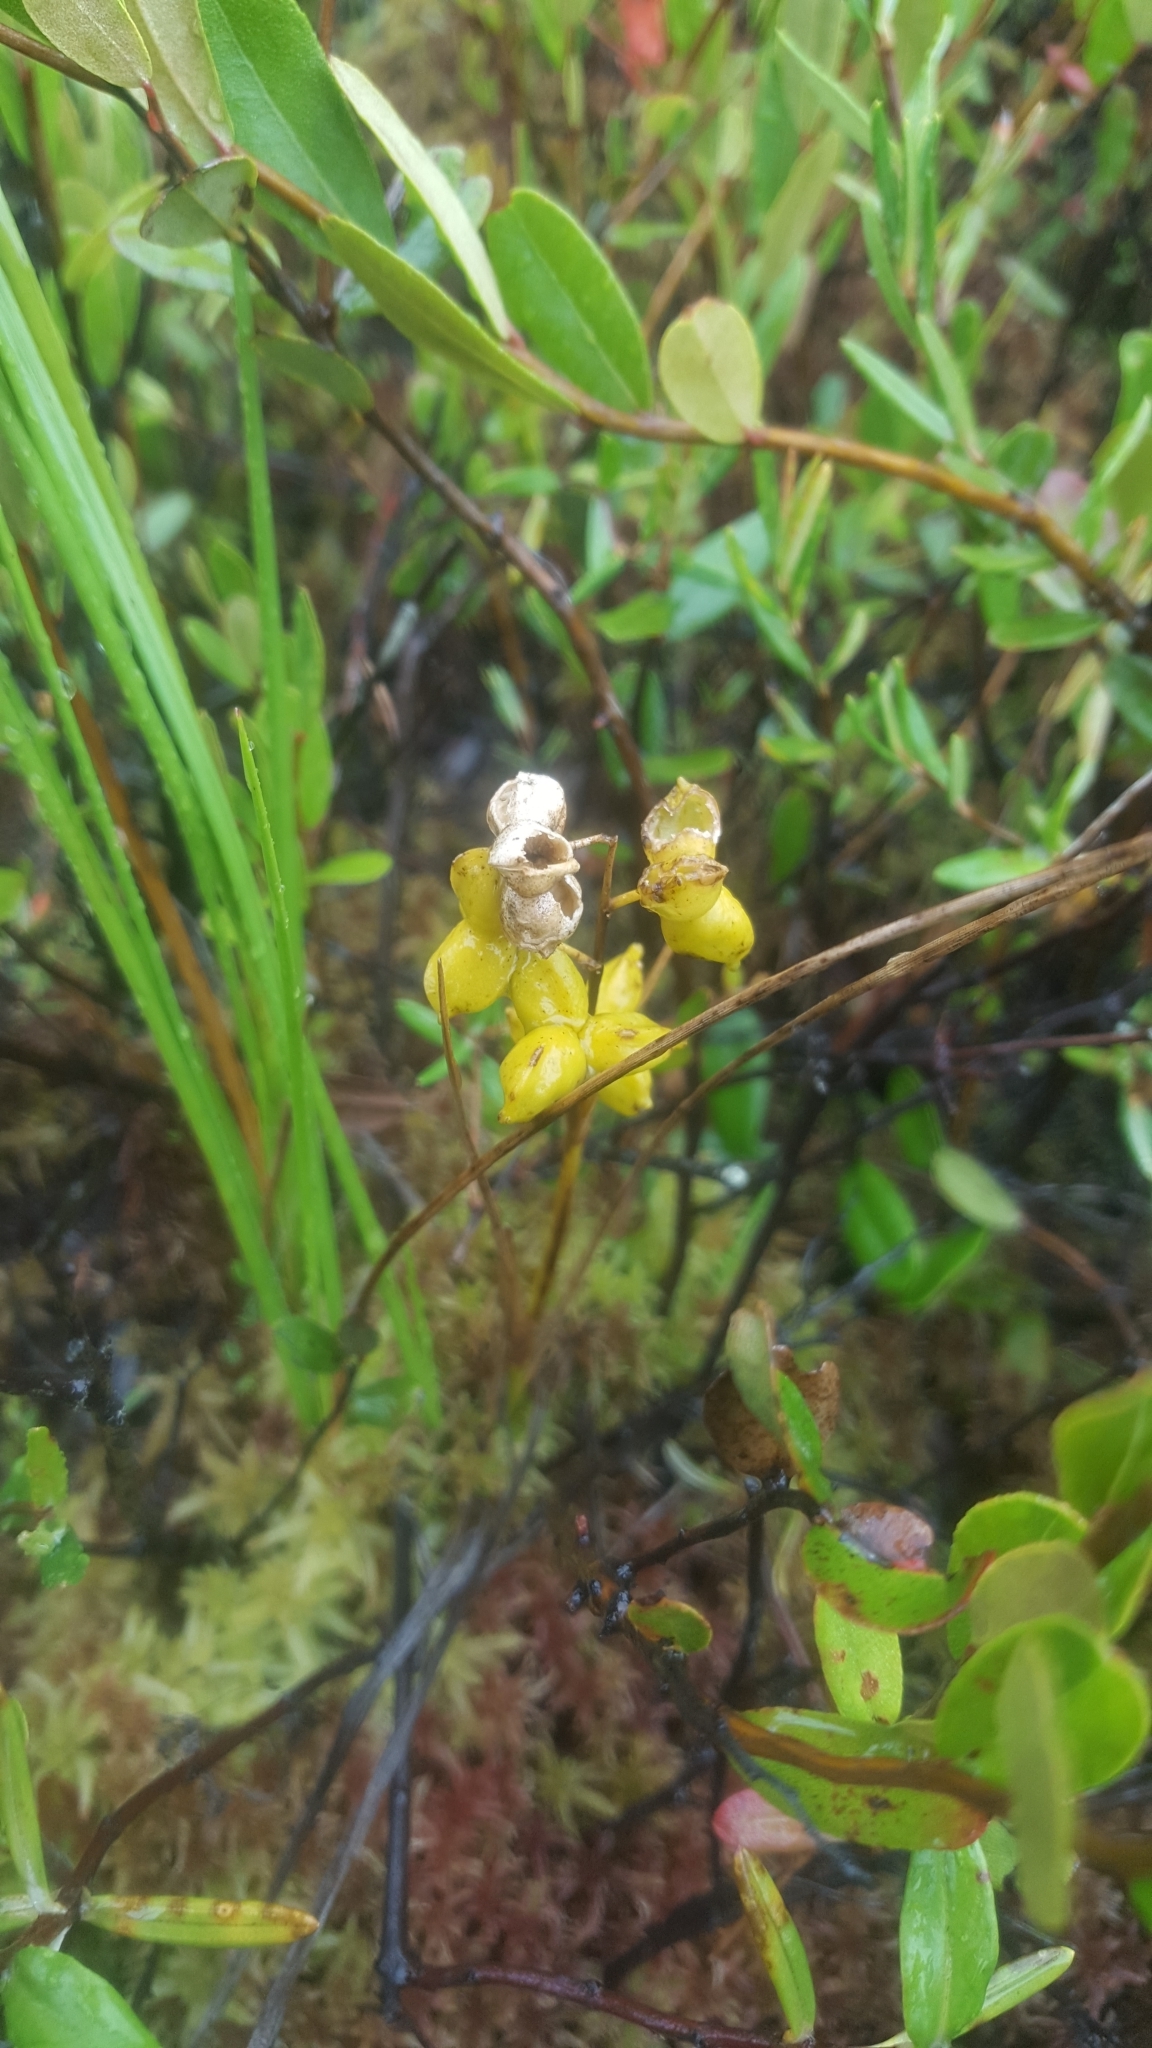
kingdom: Plantae
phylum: Tracheophyta
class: Liliopsida
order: Alismatales
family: Scheuchzeriaceae
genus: Scheuchzeria
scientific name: Scheuchzeria palustris
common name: Rannoch-rush
